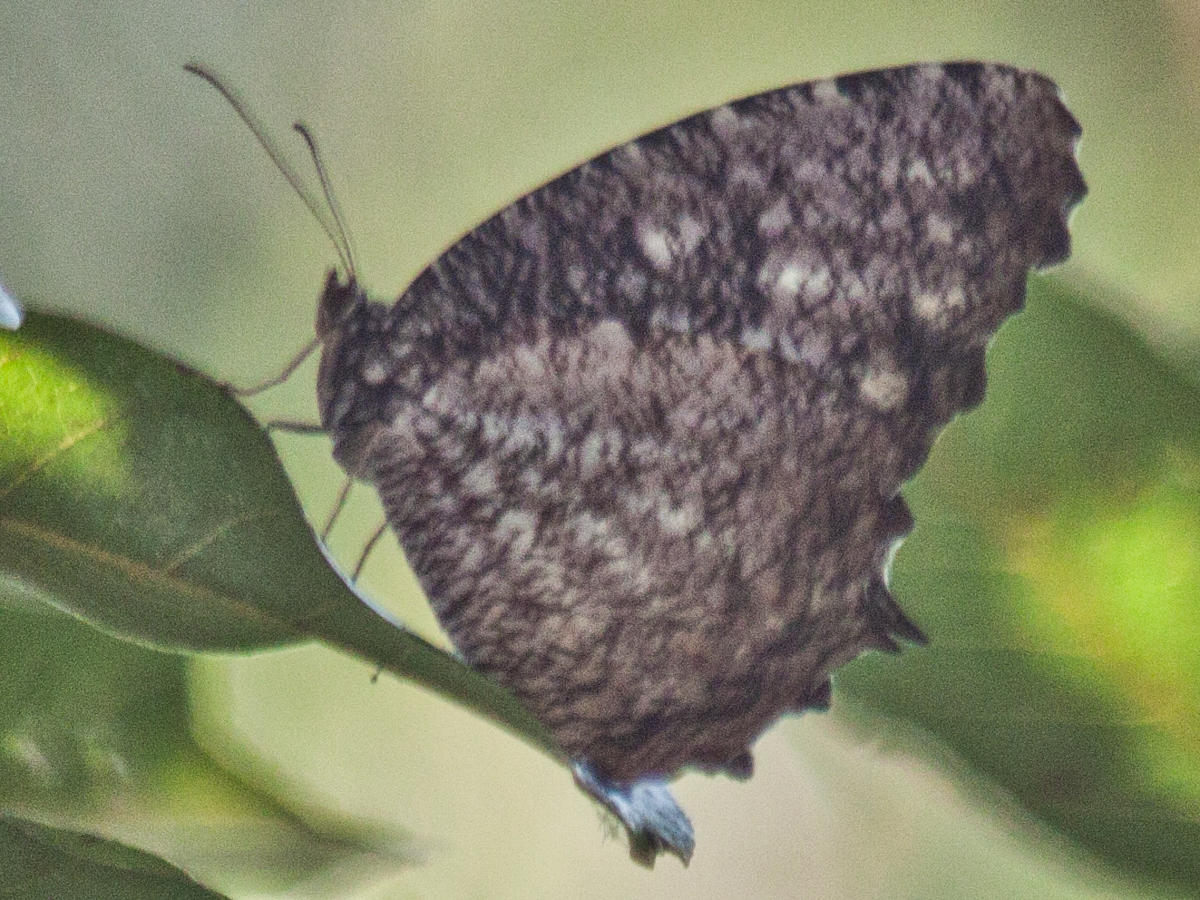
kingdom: Animalia
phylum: Arthropoda
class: Insecta
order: Lepidoptera
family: Nymphalidae
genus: Elymnias
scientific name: Elymnias nesaea
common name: Tiger palmfly
